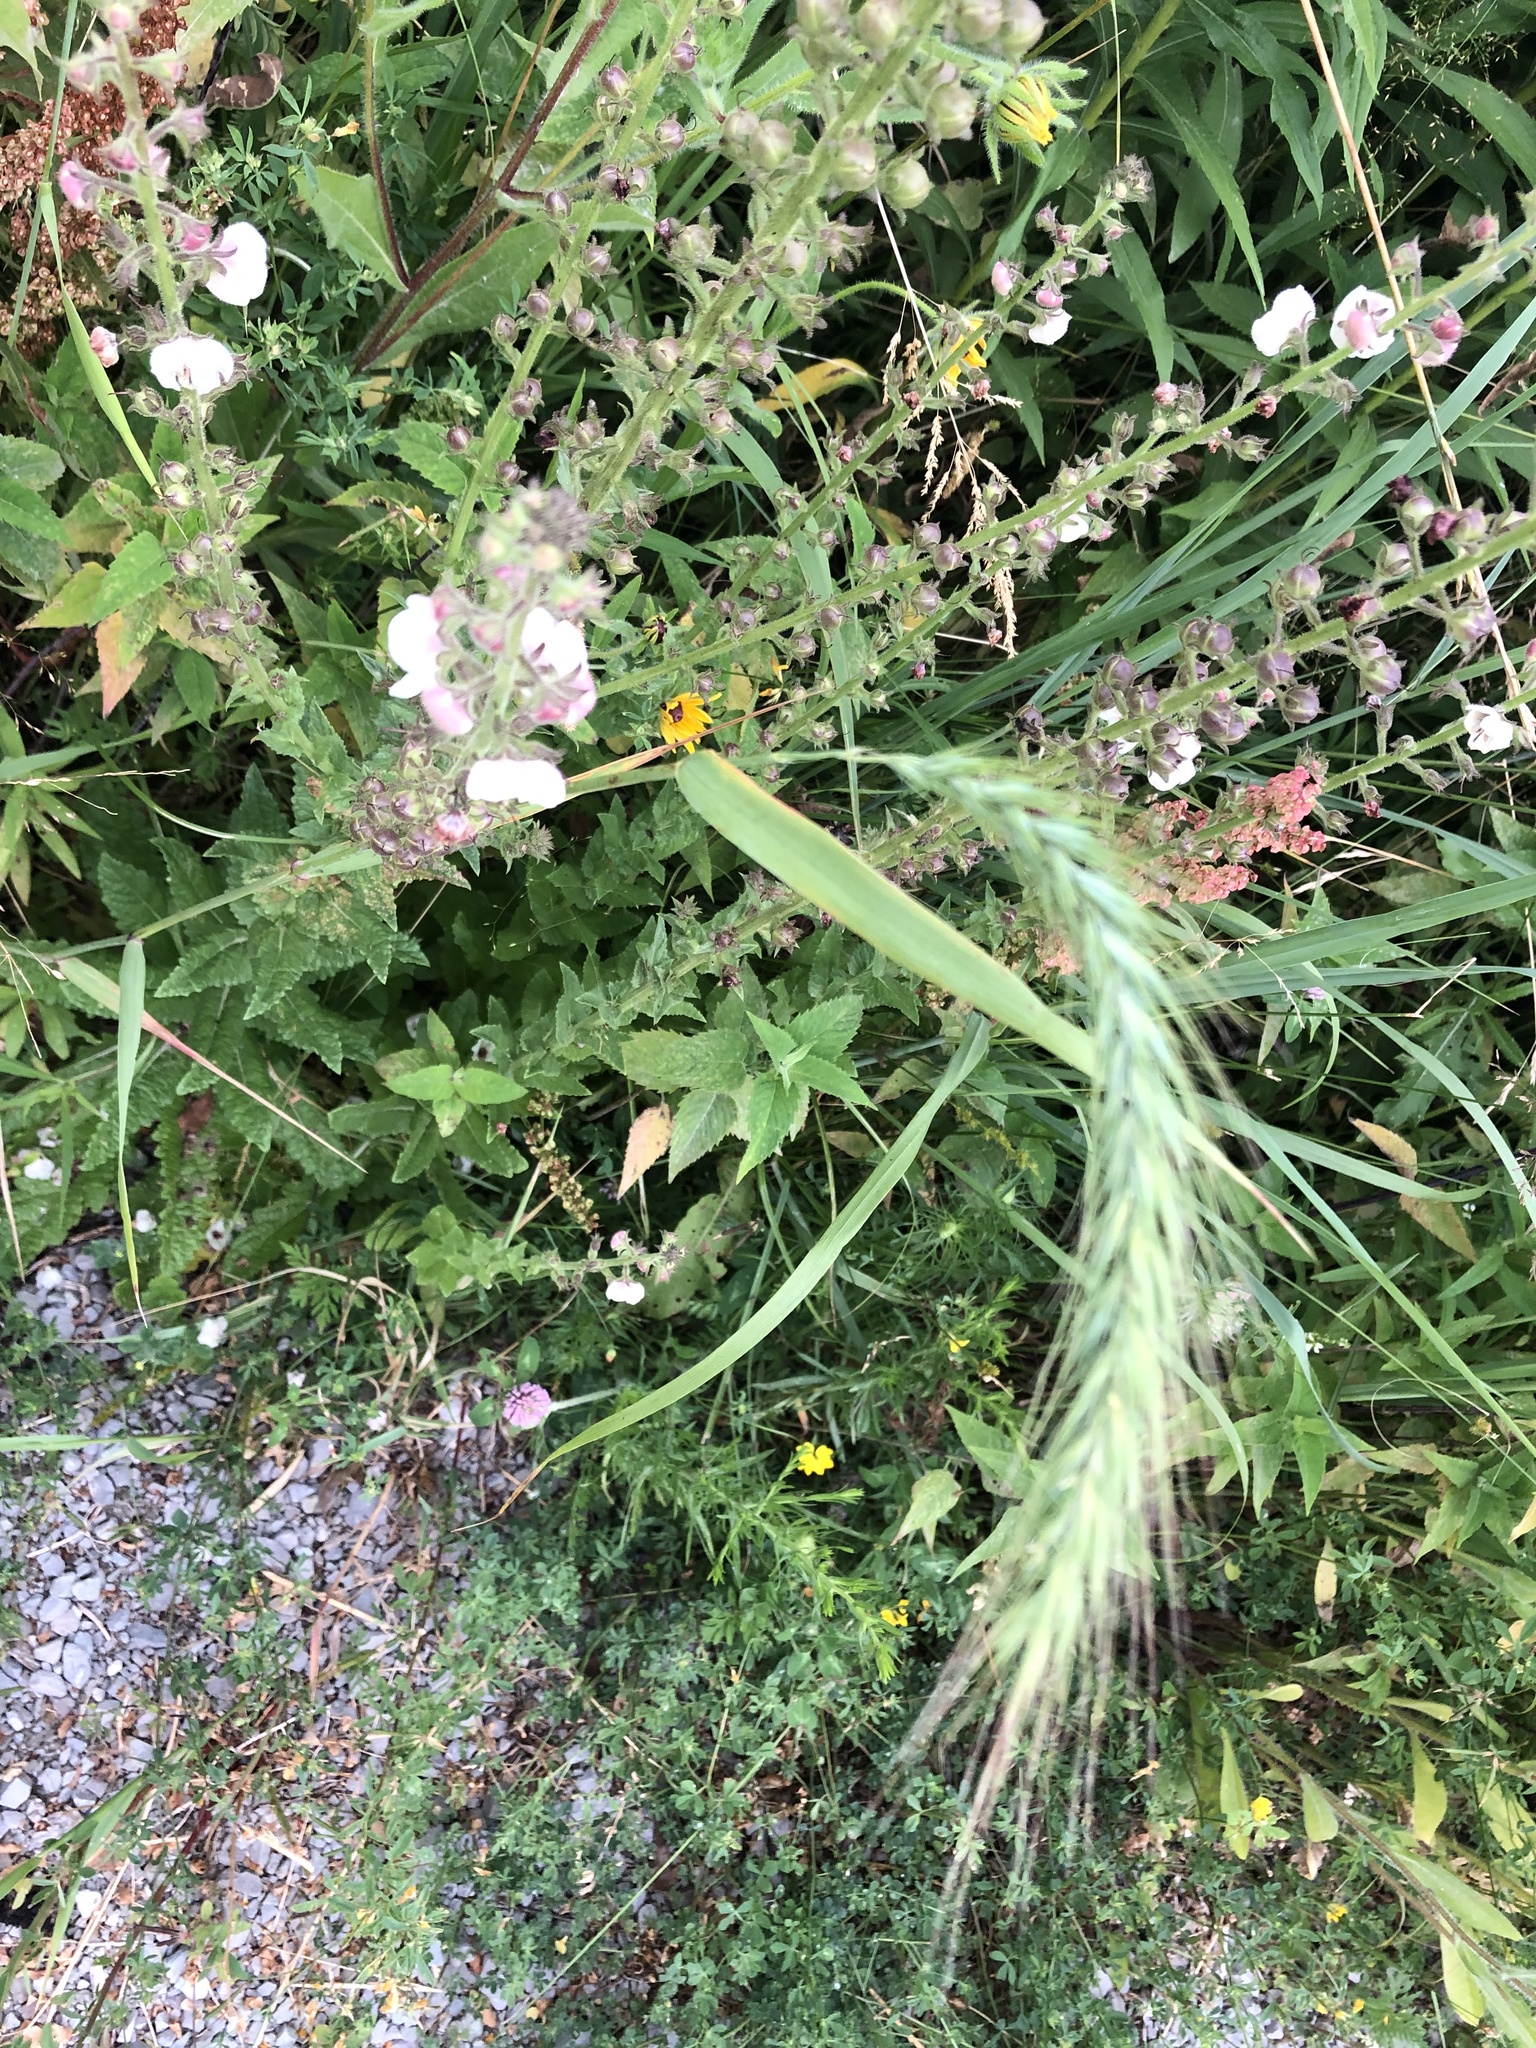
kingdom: Plantae
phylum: Tracheophyta
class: Liliopsida
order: Poales
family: Poaceae
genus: Elymus
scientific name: Elymus canadensis
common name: Canada wild rye
